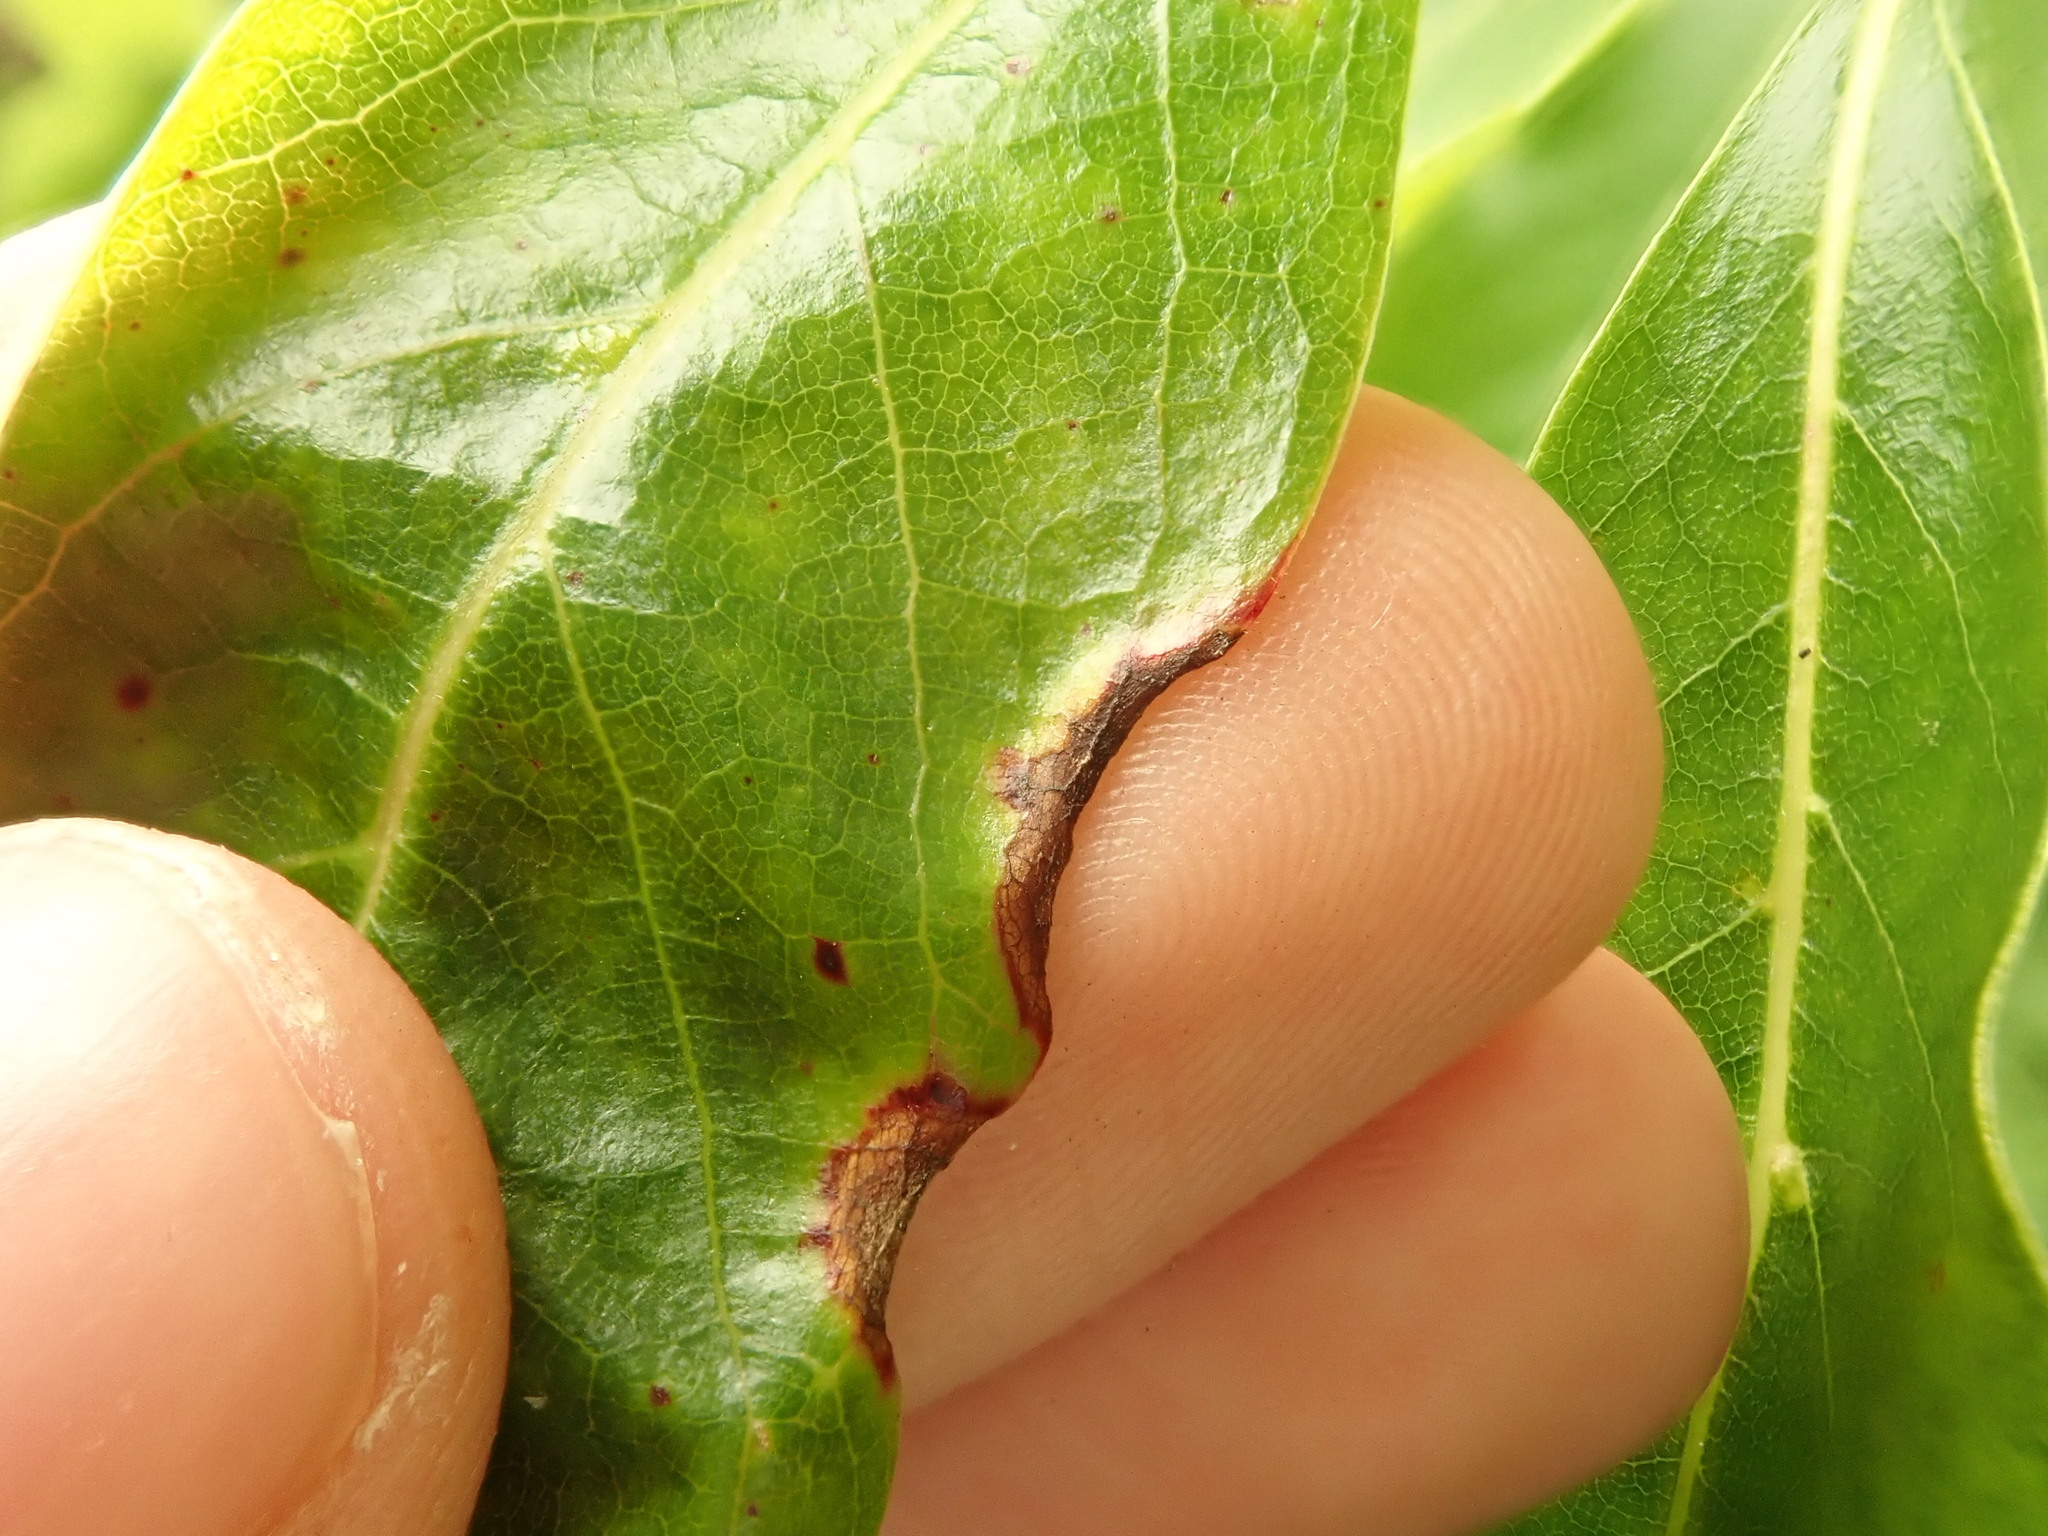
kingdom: Animalia
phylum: Arthropoda
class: Insecta
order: Hemiptera
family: Phylloxeridae
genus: Phylloxerina
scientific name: Phylloxerina nyssae
